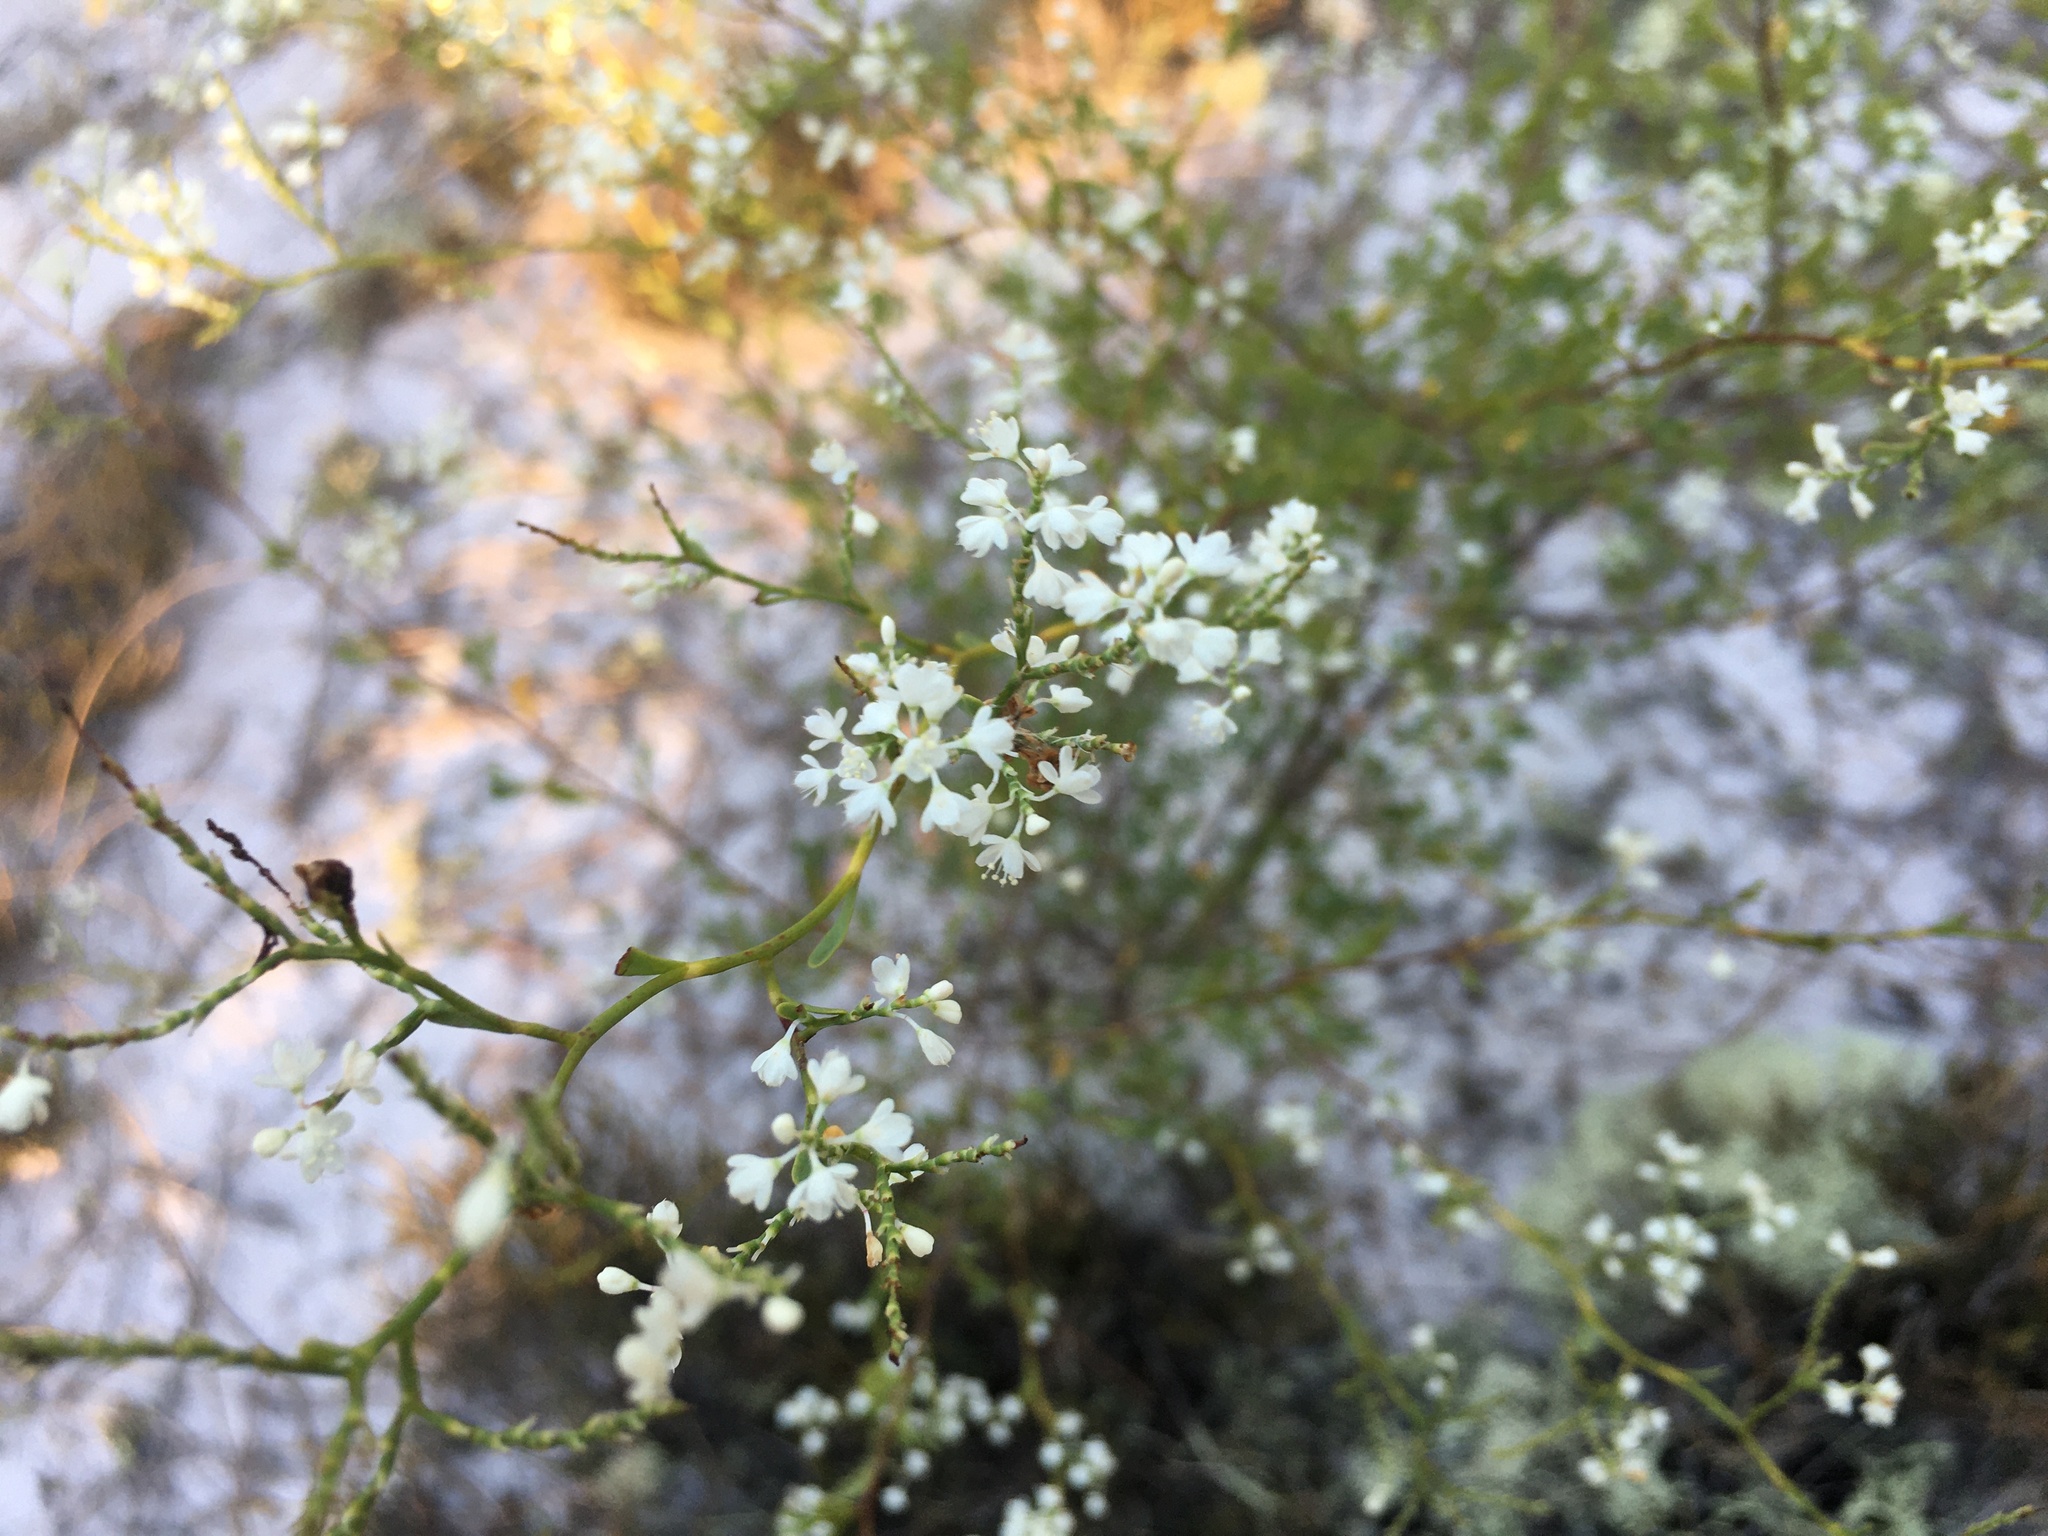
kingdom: Plantae
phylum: Tracheophyta
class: Magnoliopsida
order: Caryophyllales
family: Polygonaceae
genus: Polygonella
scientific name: Polygonella polygama
